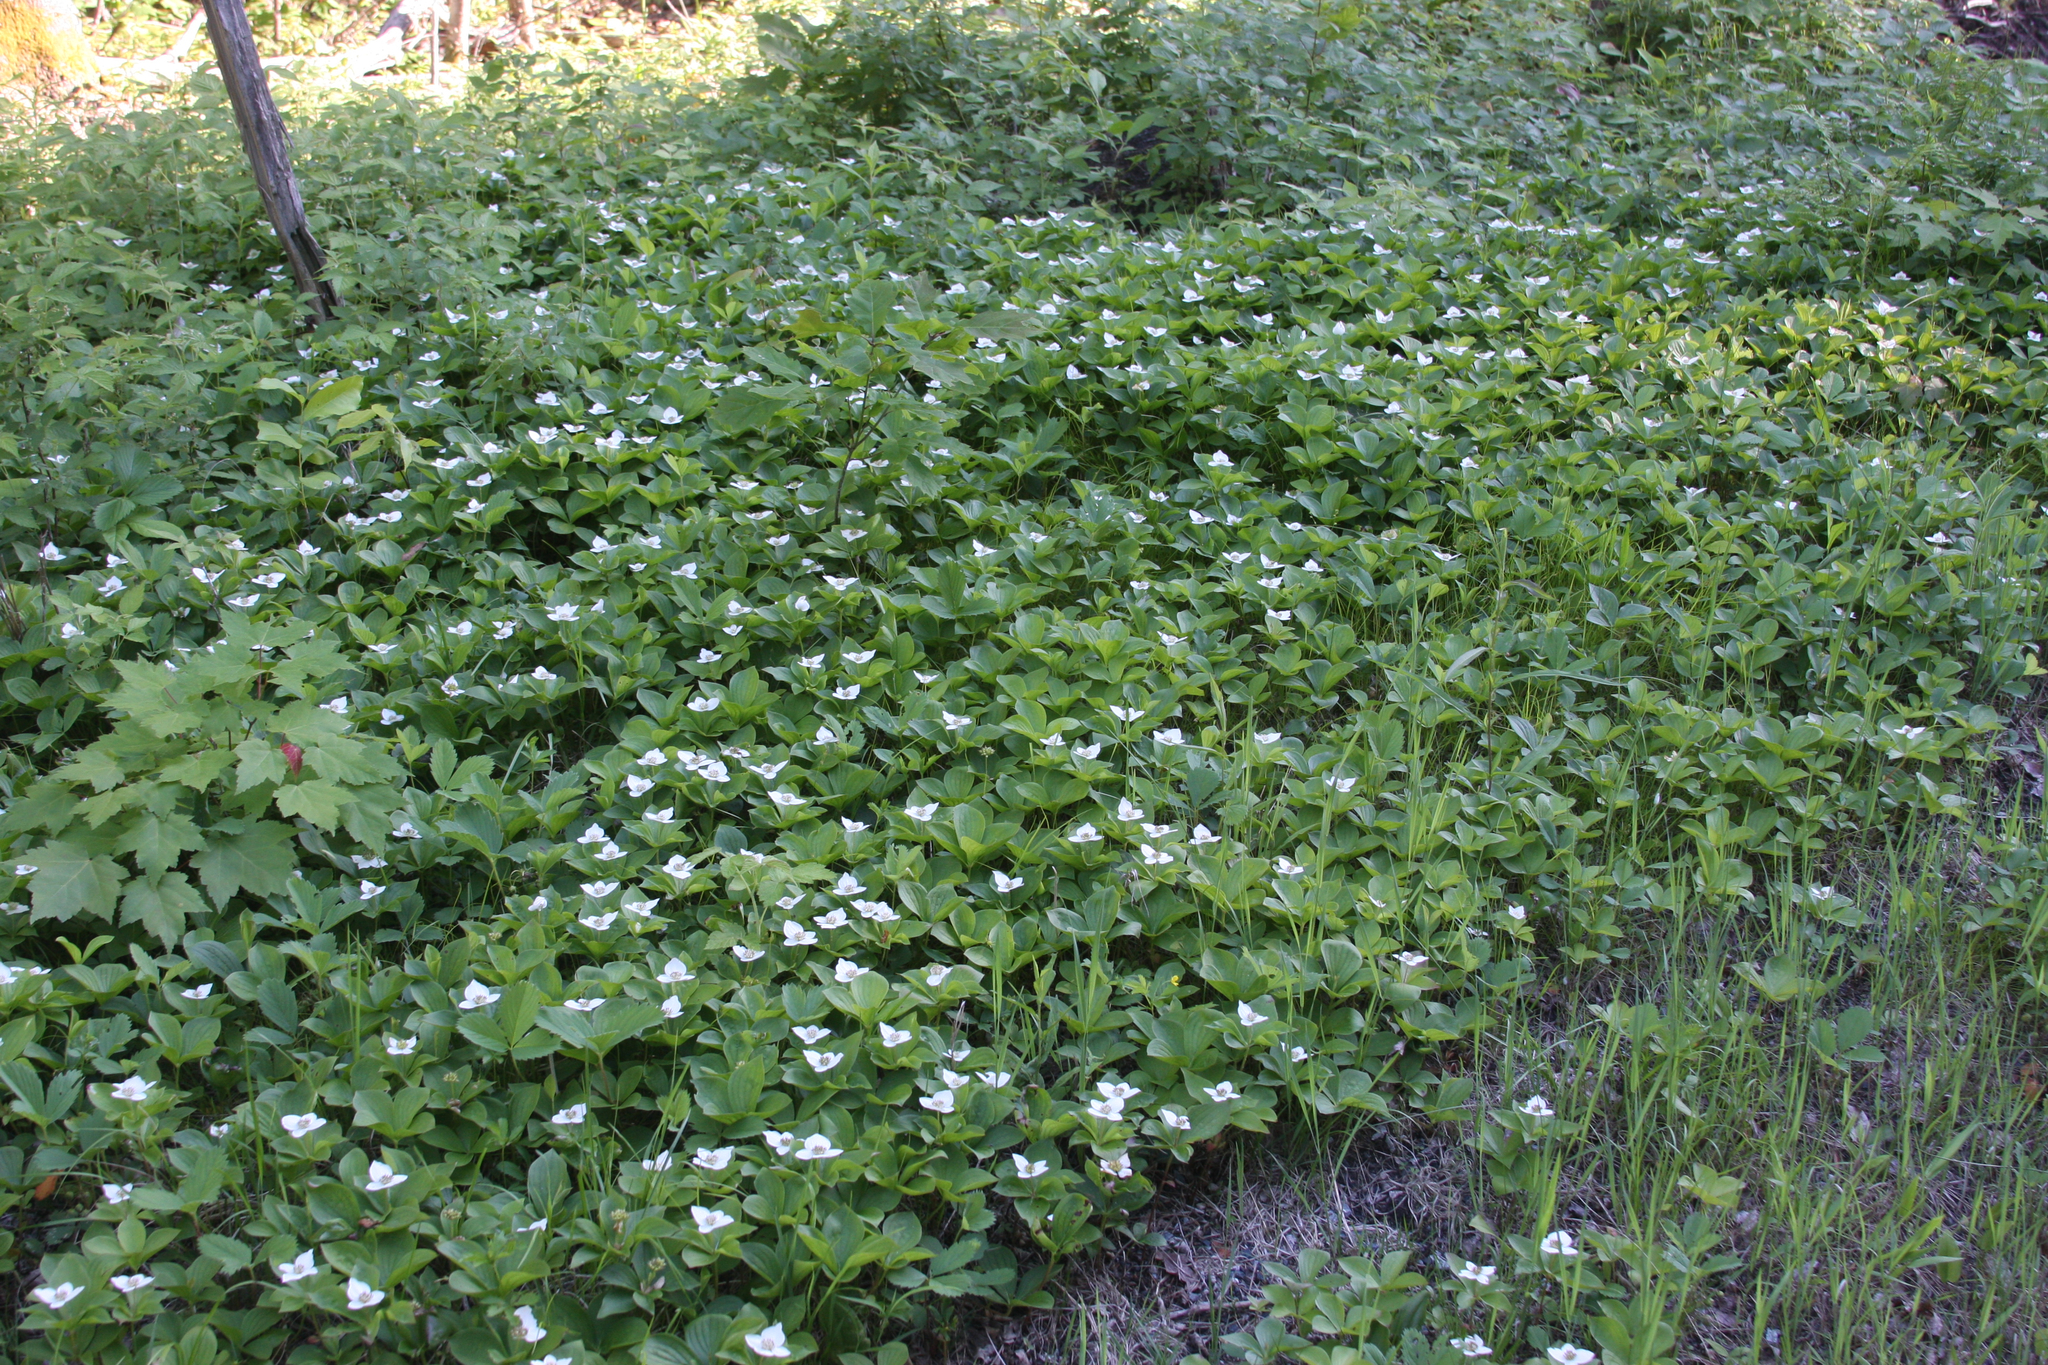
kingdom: Plantae
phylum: Tracheophyta
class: Magnoliopsida
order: Cornales
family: Cornaceae
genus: Cornus
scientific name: Cornus canadensis
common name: Creeping dogwood
